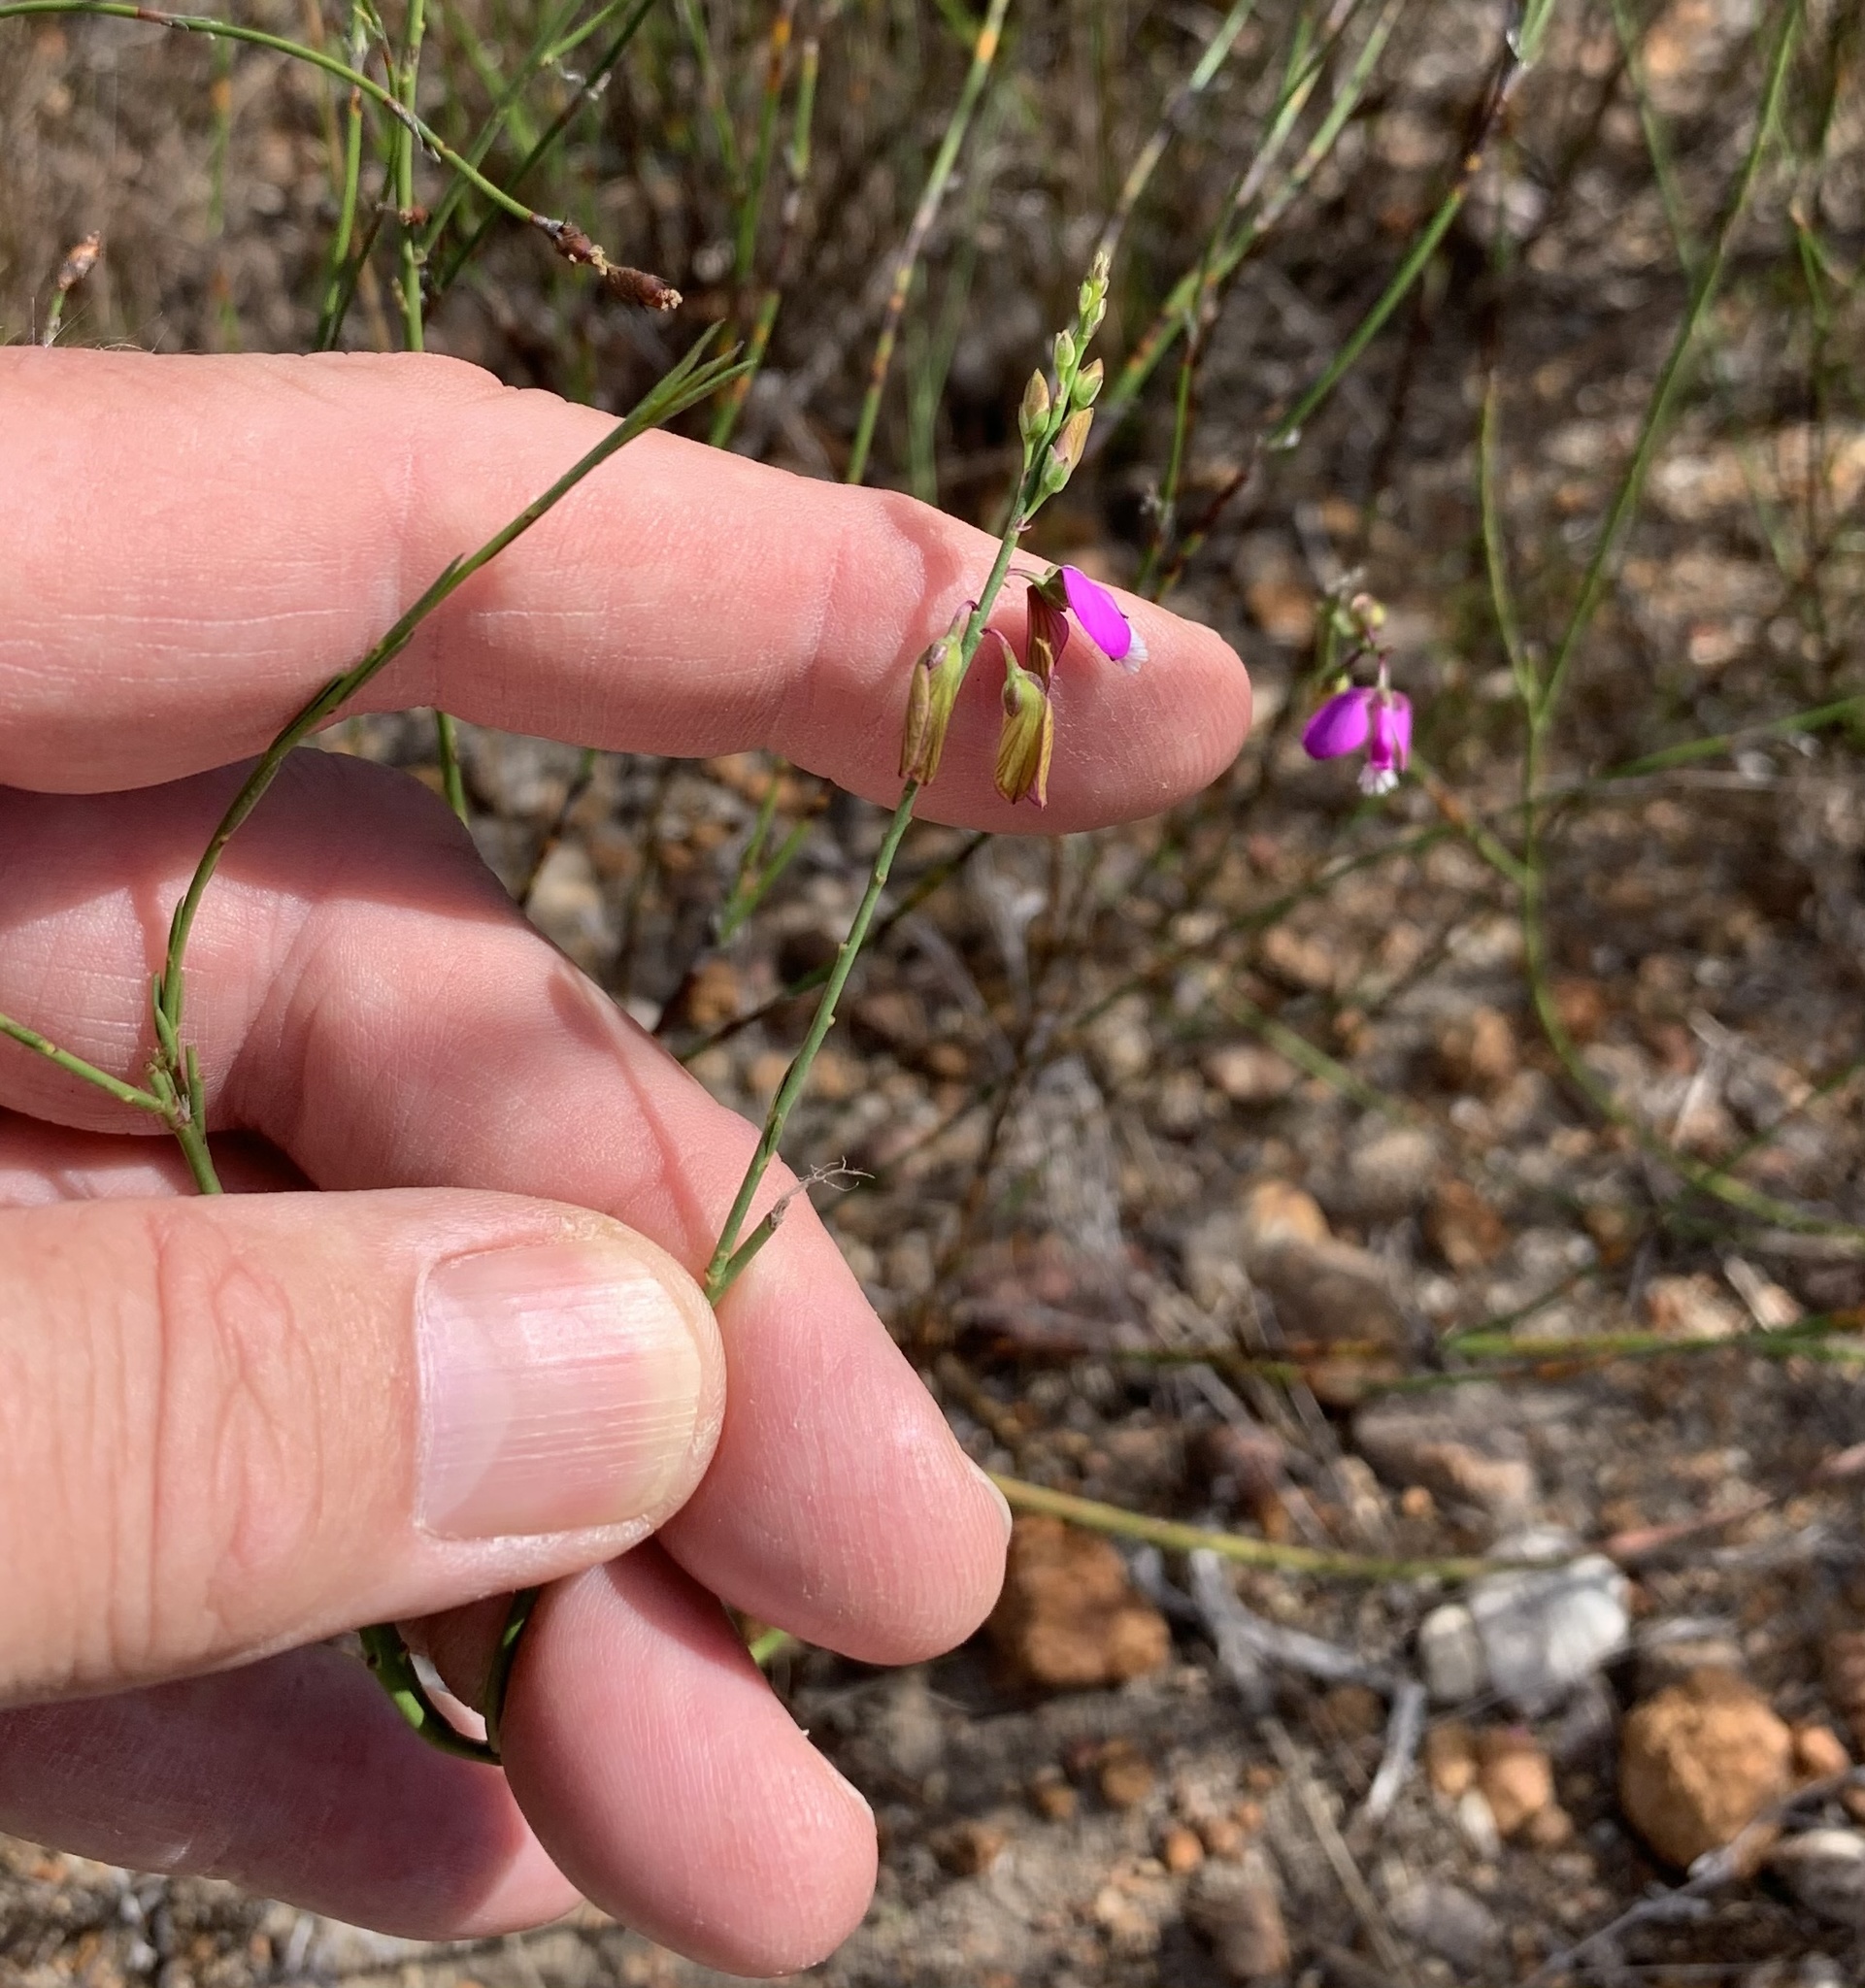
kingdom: Plantae
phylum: Tracheophyta
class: Magnoliopsida
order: Fabales
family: Polygalaceae
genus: Polygala
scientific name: Polygala garcini
